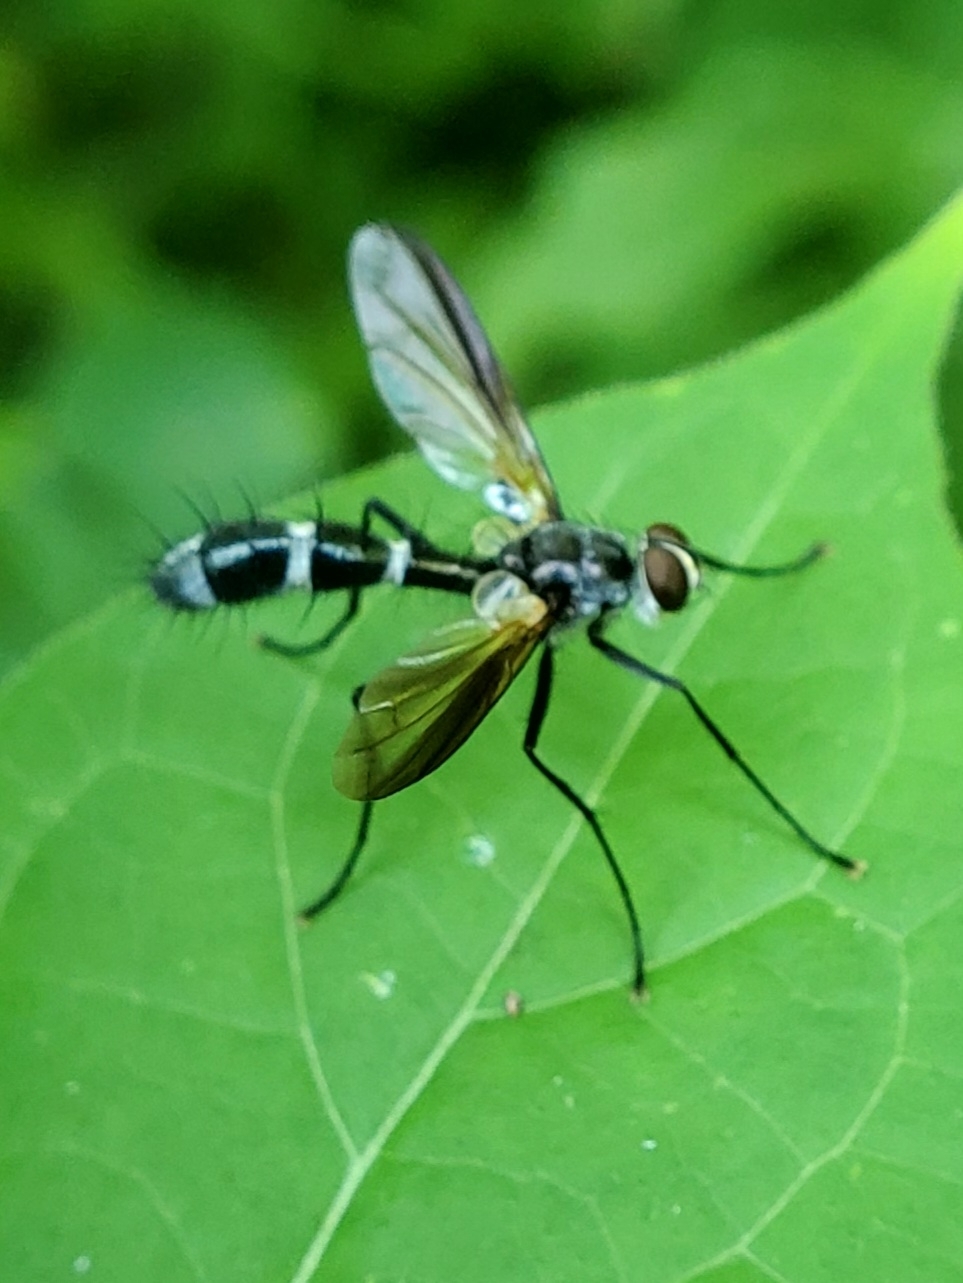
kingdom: Animalia
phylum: Arthropoda
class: Insecta
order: Diptera
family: Tachinidae
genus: Cordyligaster
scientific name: Cordyligaster septentrionalis
